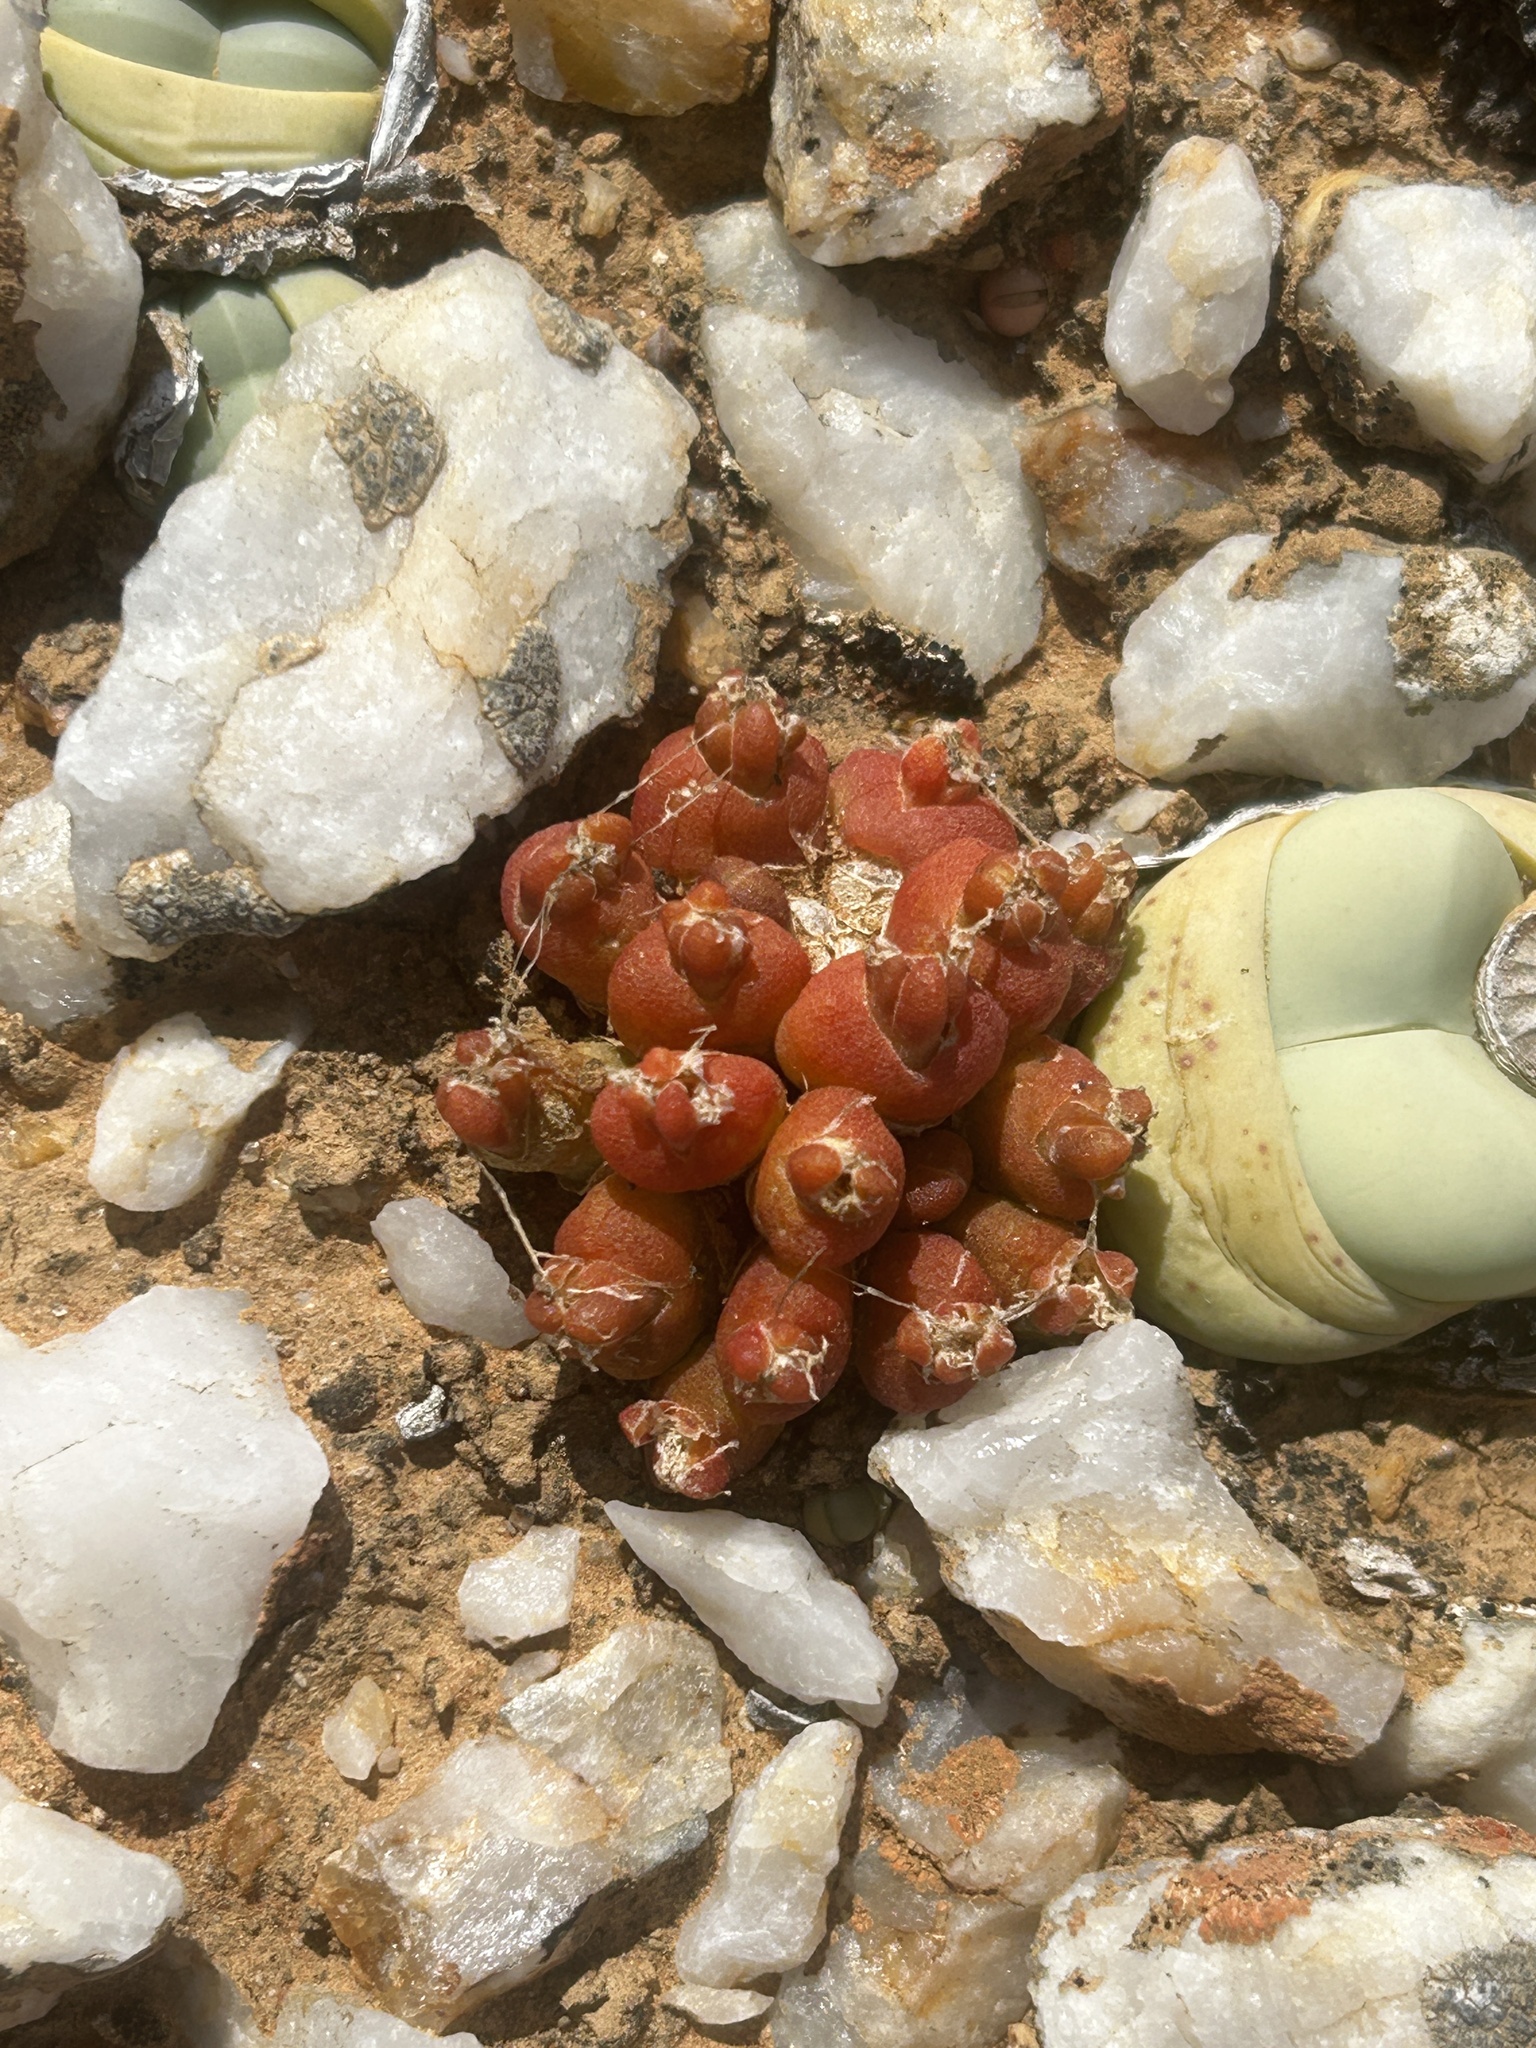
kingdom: Plantae
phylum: Tracheophyta
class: Magnoliopsida
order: Caryophyllales
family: Aizoaceae
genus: Oophytum
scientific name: Oophytum nanum
